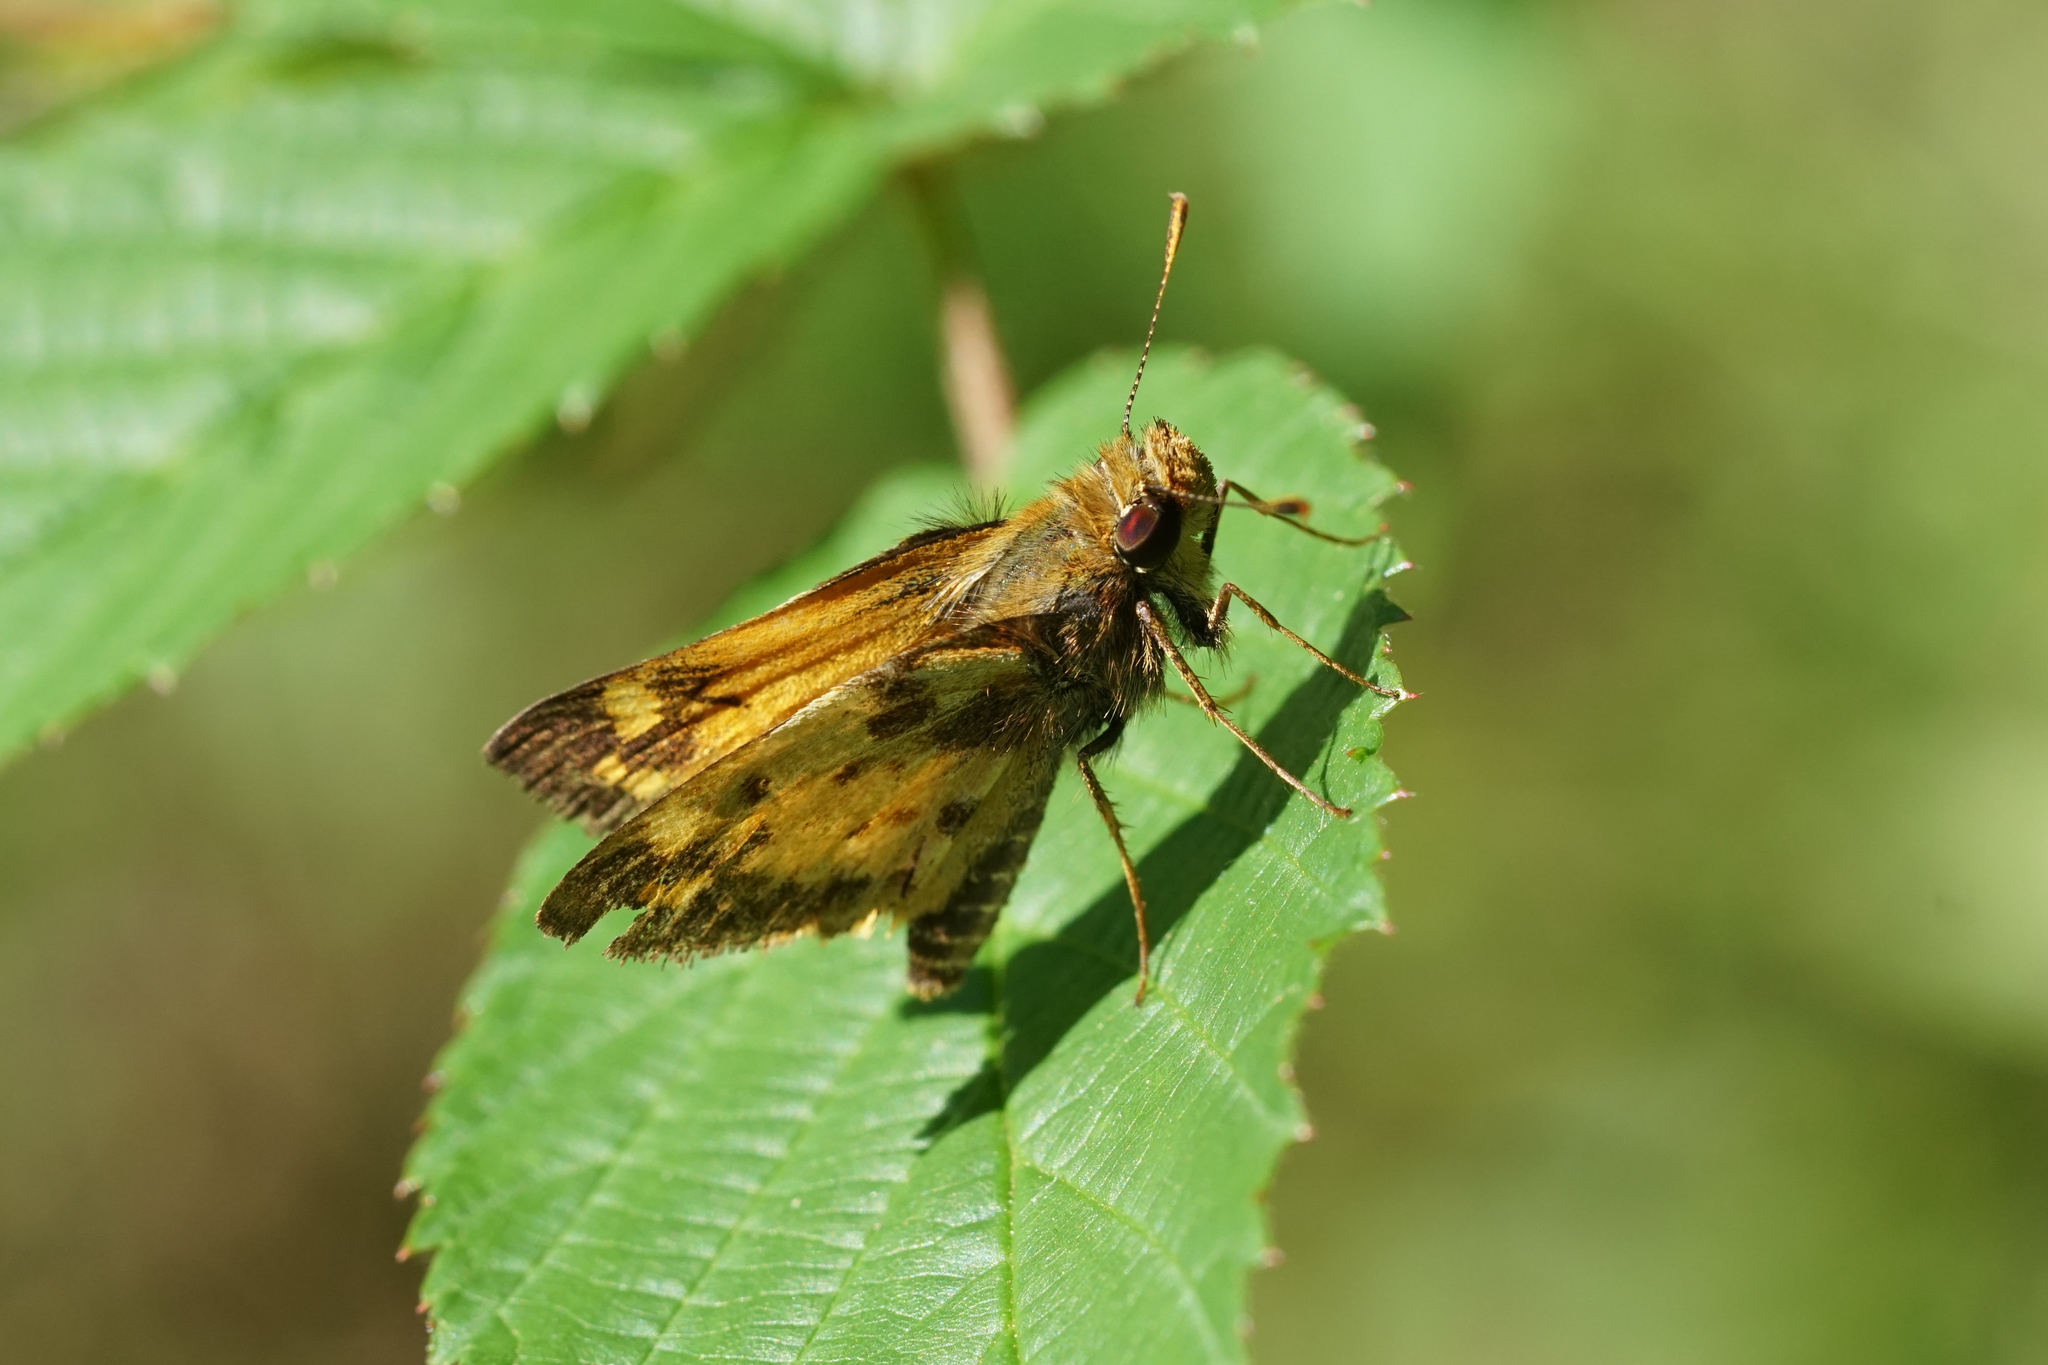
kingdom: Animalia
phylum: Arthropoda
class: Insecta
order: Lepidoptera
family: Hesperiidae
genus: Lon
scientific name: Lon zabulon
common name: Zabulon skipper
